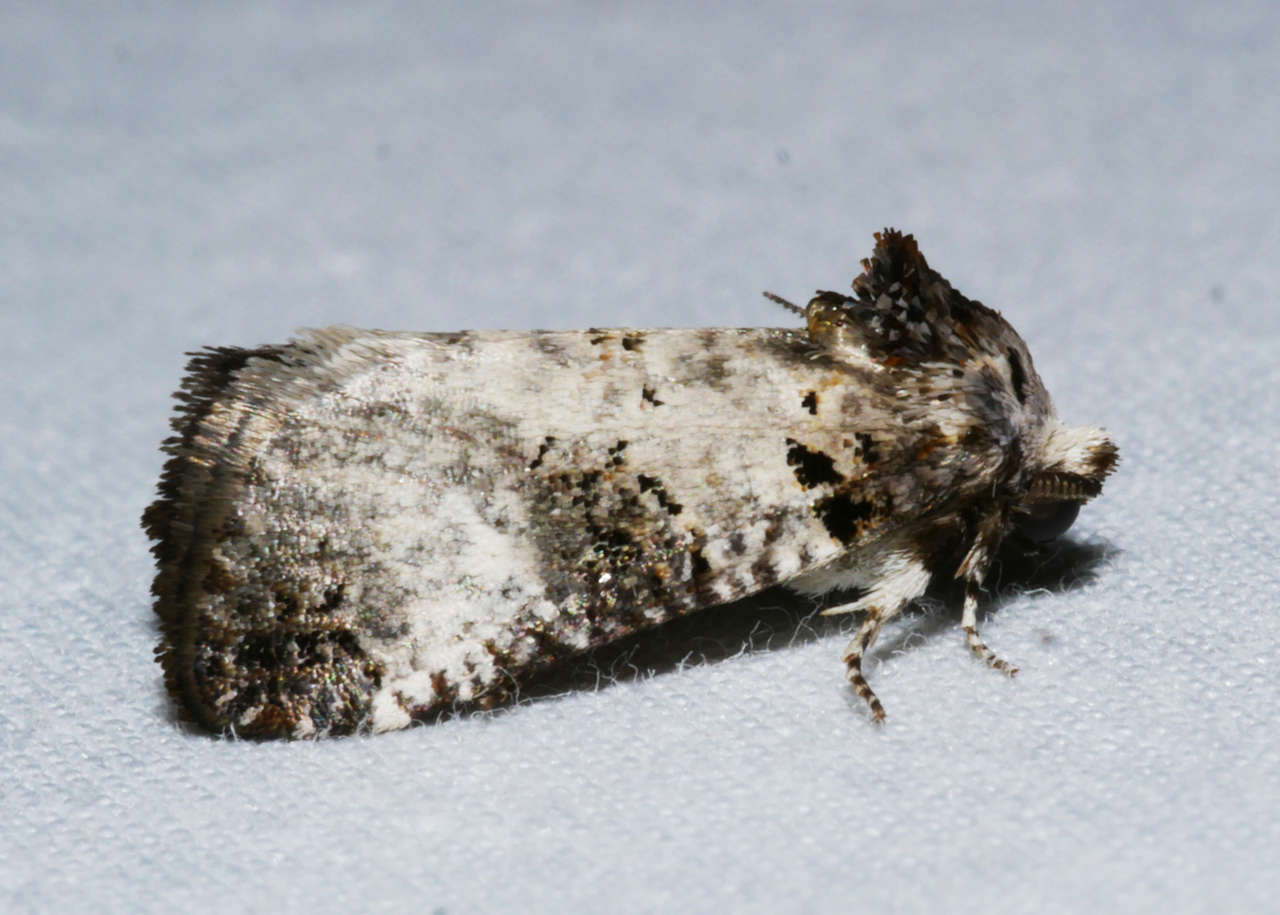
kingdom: Animalia
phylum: Arthropoda
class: Insecta
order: Lepidoptera
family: Cossidae
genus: Idioses
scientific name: Idioses littleri
